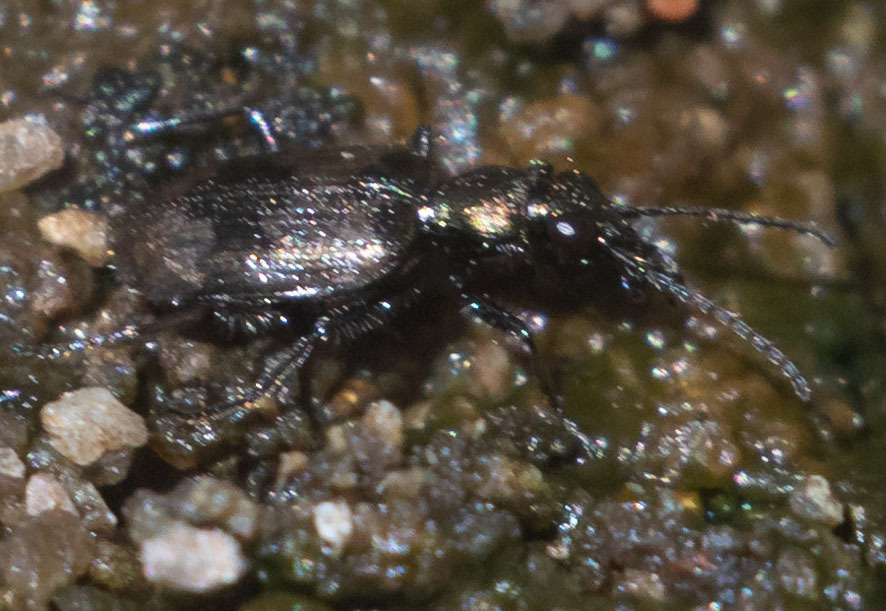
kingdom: Animalia
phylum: Arthropoda
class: Insecta
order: Coleoptera
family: Carabidae
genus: Lachnophorus
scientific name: Lachnophorus elegantulus
